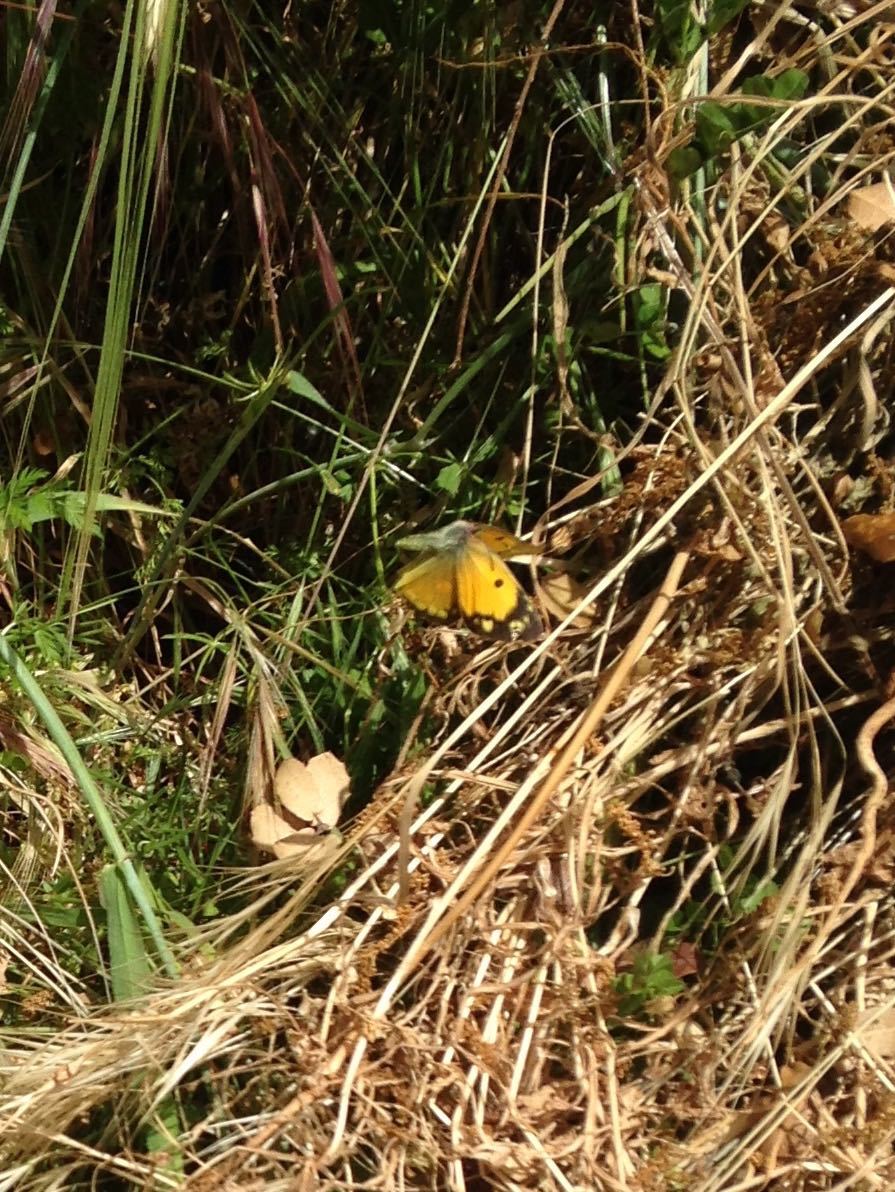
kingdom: Animalia
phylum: Arthropoda
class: Insecta
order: Lepidoptera
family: Pieridae
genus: Colias
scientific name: Colias croceus
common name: Clouded yellow
